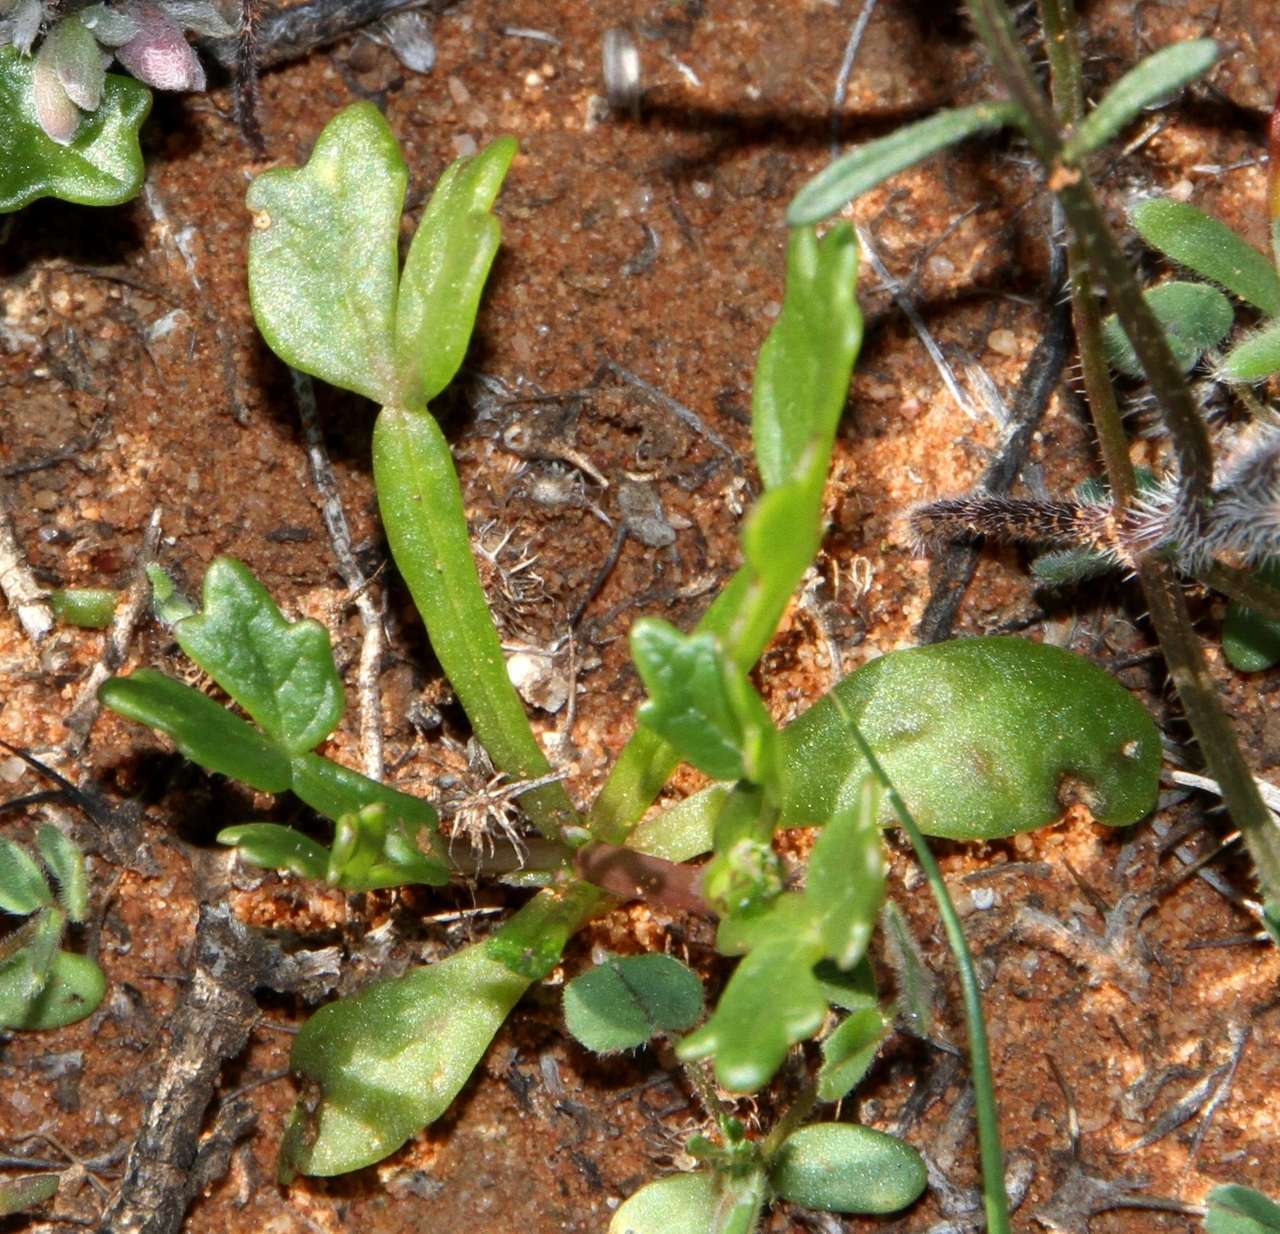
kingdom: Plantae
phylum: Tracheophyta
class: Magnoliopsida
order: Zygophyllales
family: Zygophyllaceae
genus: Roepera
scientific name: Roepera crenata
